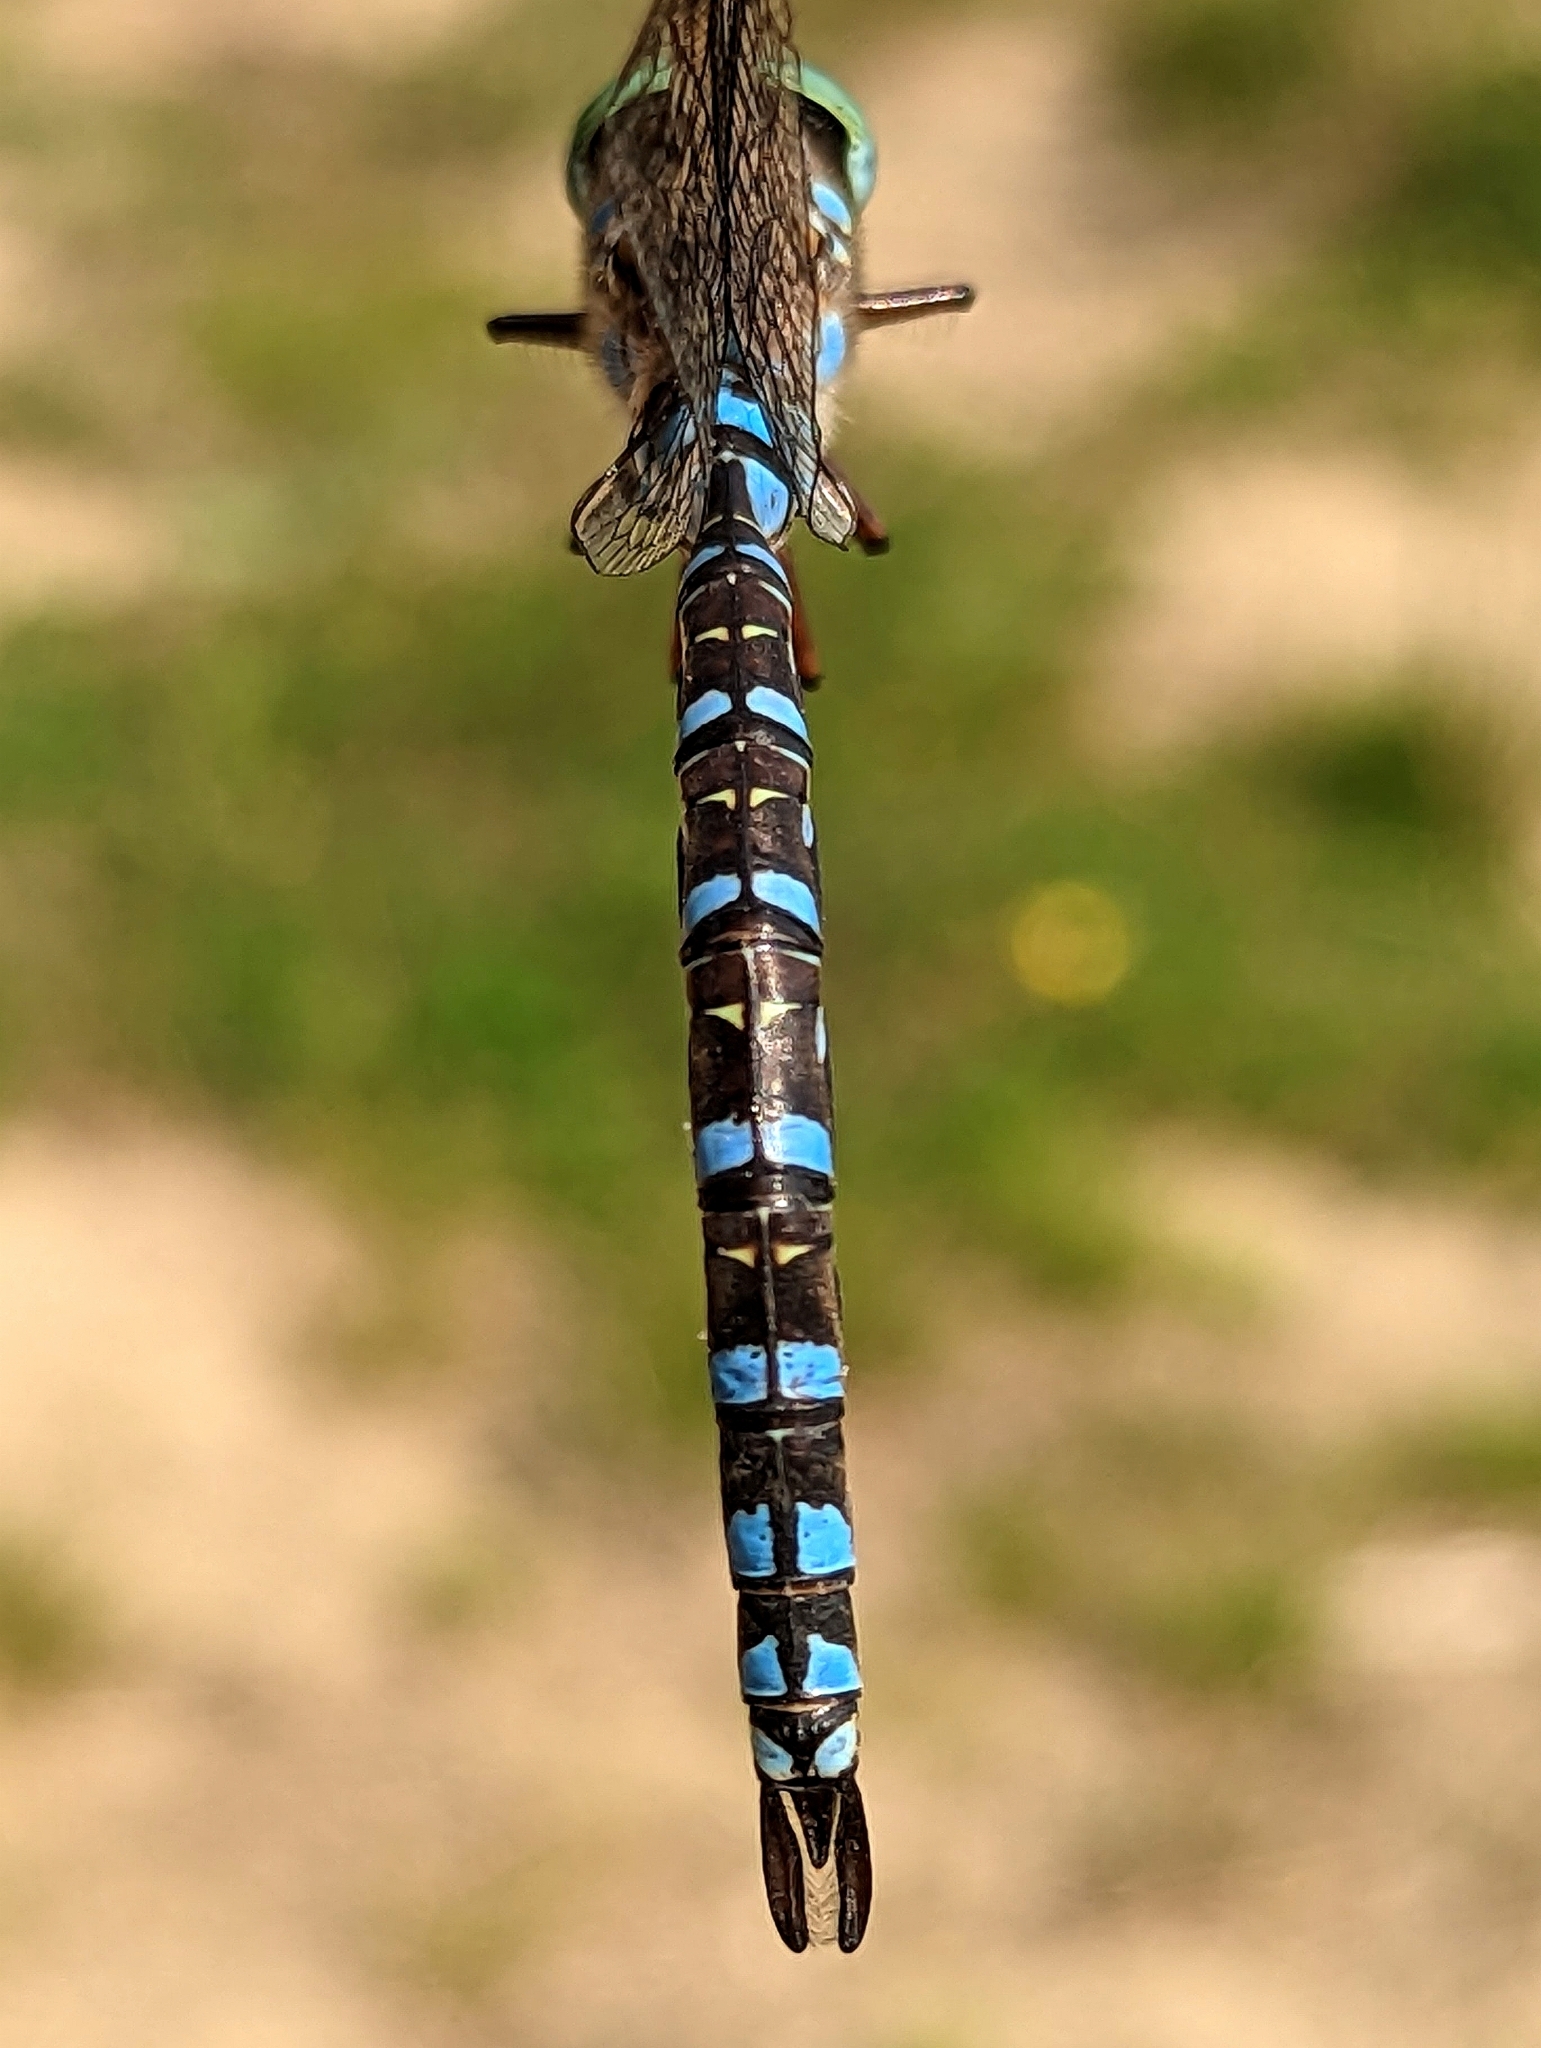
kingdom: Animalia
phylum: Arthropoda
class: Insecta
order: Odonata
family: Aeshnidae
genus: Aeshna
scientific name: Aeshna eremita
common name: Lake darner
